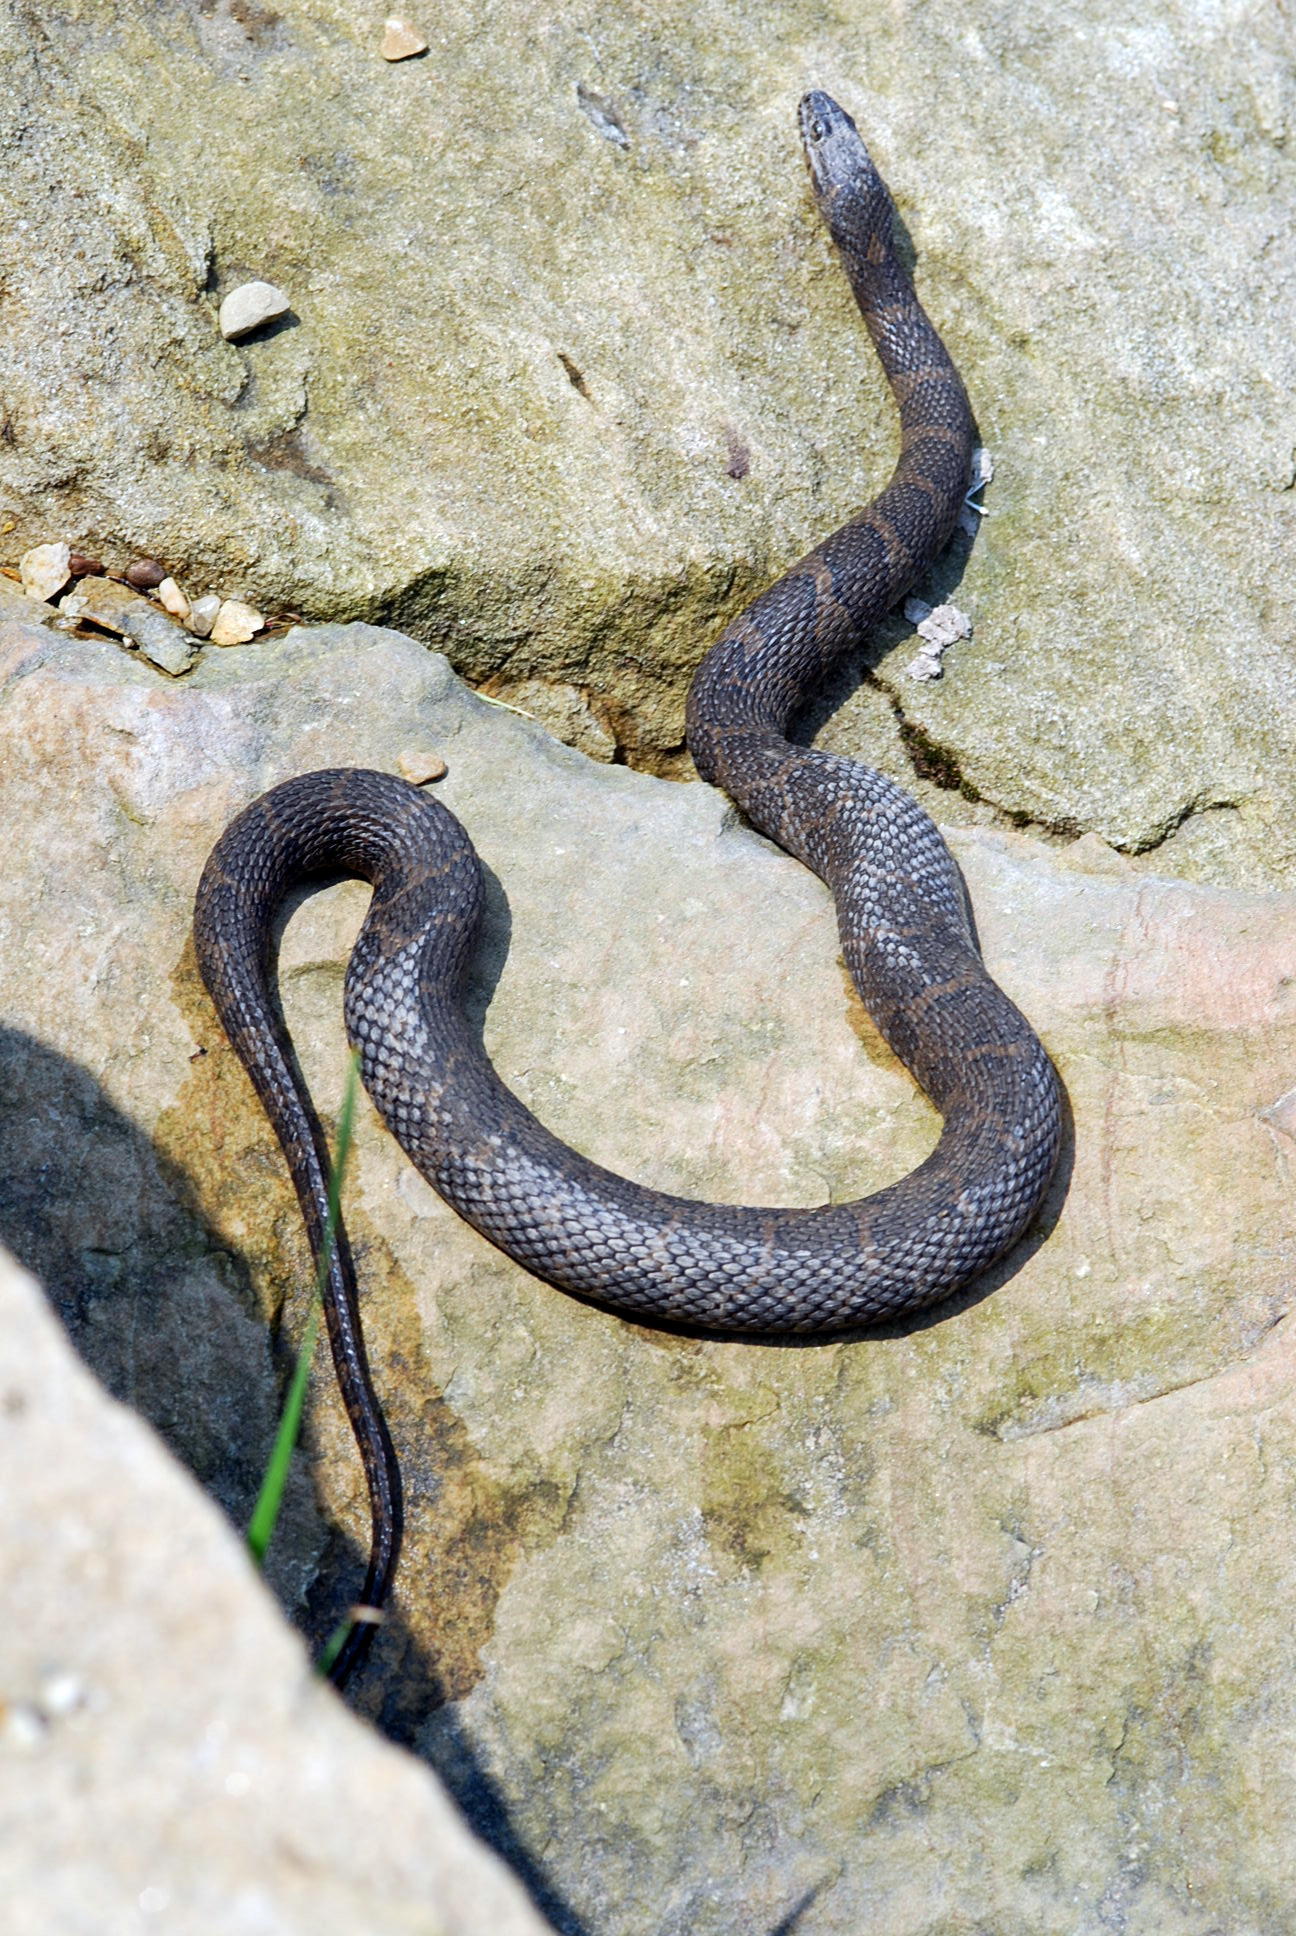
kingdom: Animalia
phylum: Chordata
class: Squamata
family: Colubridae
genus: Nerodia
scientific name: Nerodia sipedon
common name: Northern water snake
